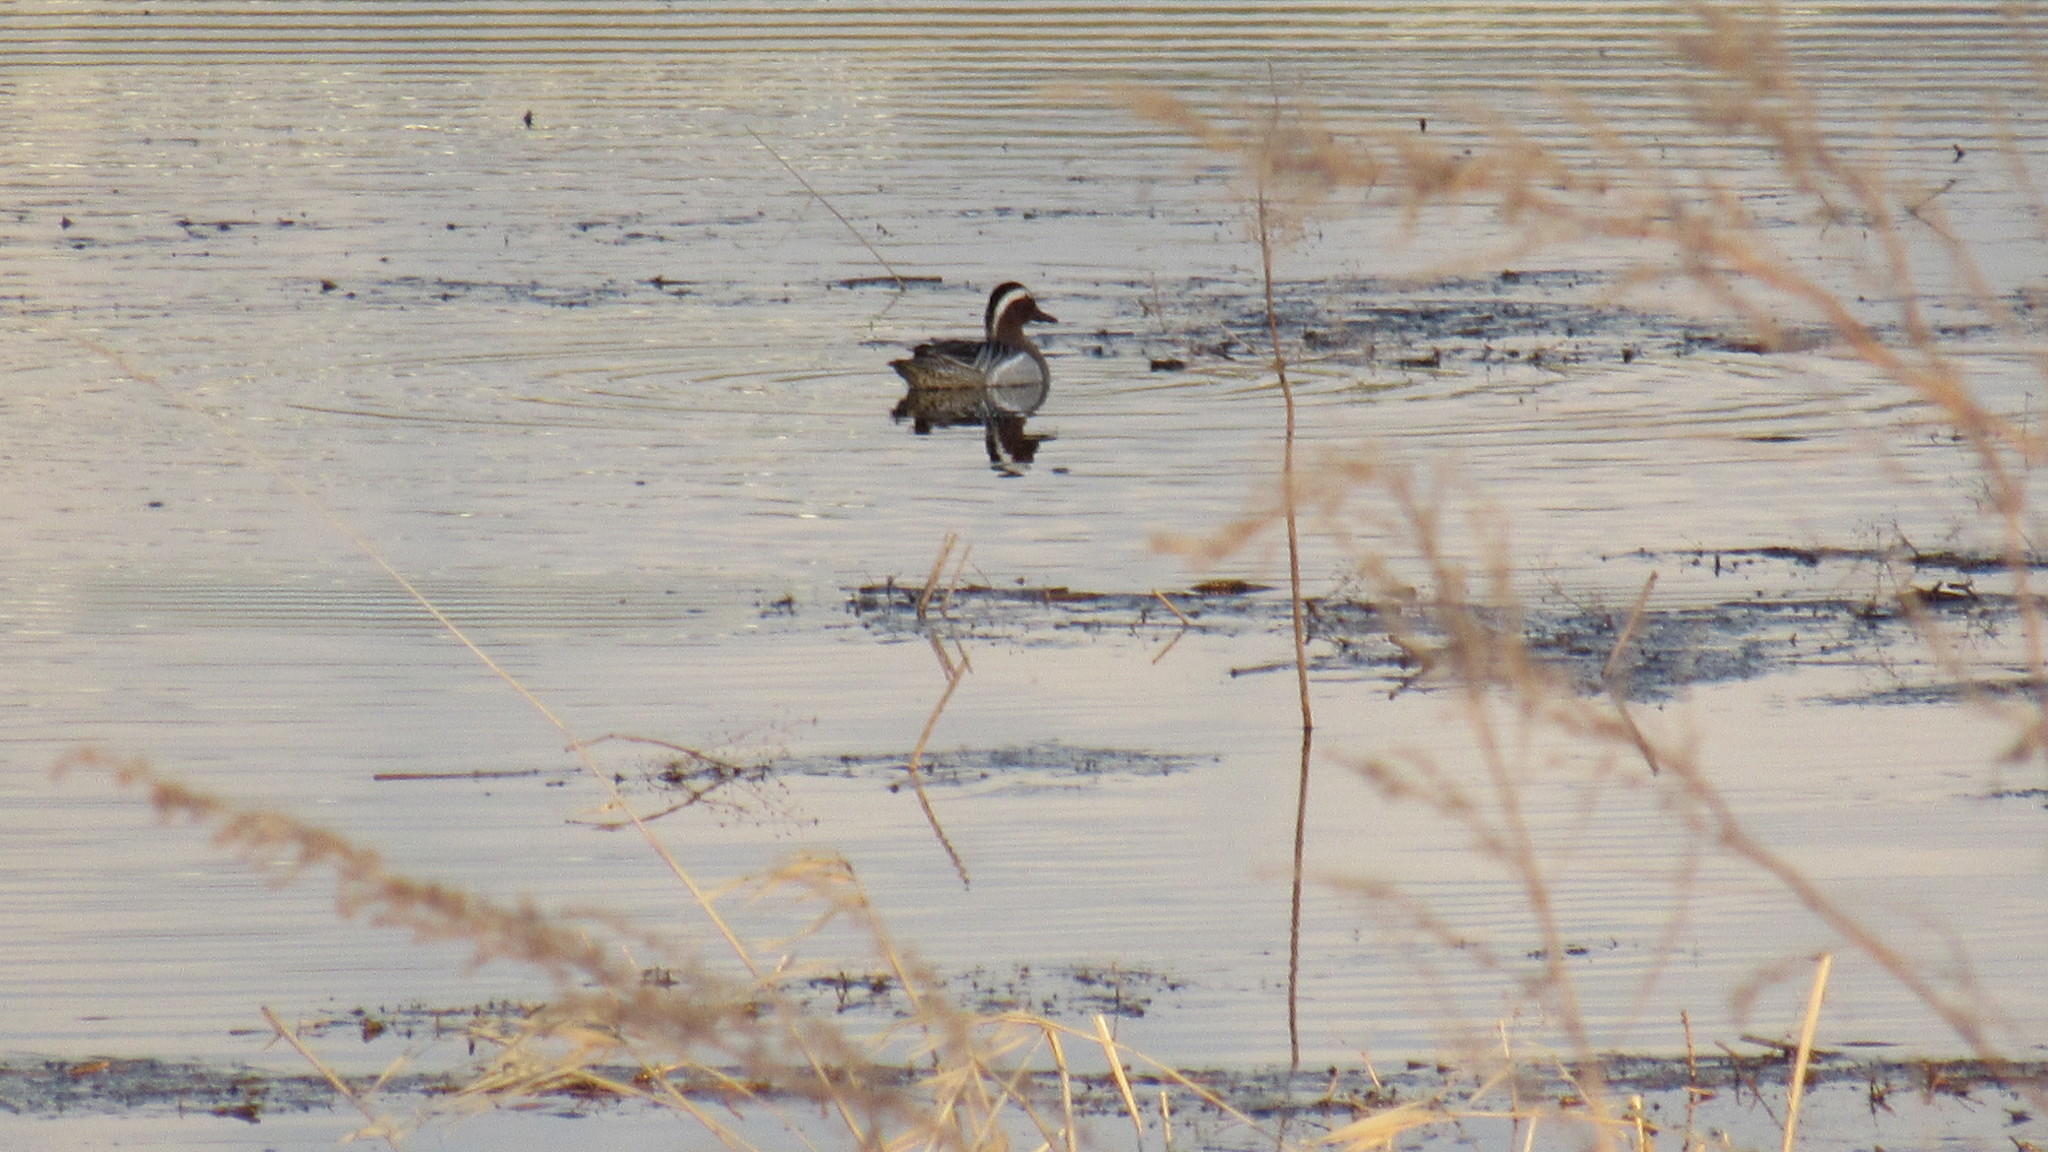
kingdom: Animalia
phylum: Chordata
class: Aves
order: Anseriformes
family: Anatidae
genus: Spatula
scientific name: Spatula querquedula
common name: Garganey
